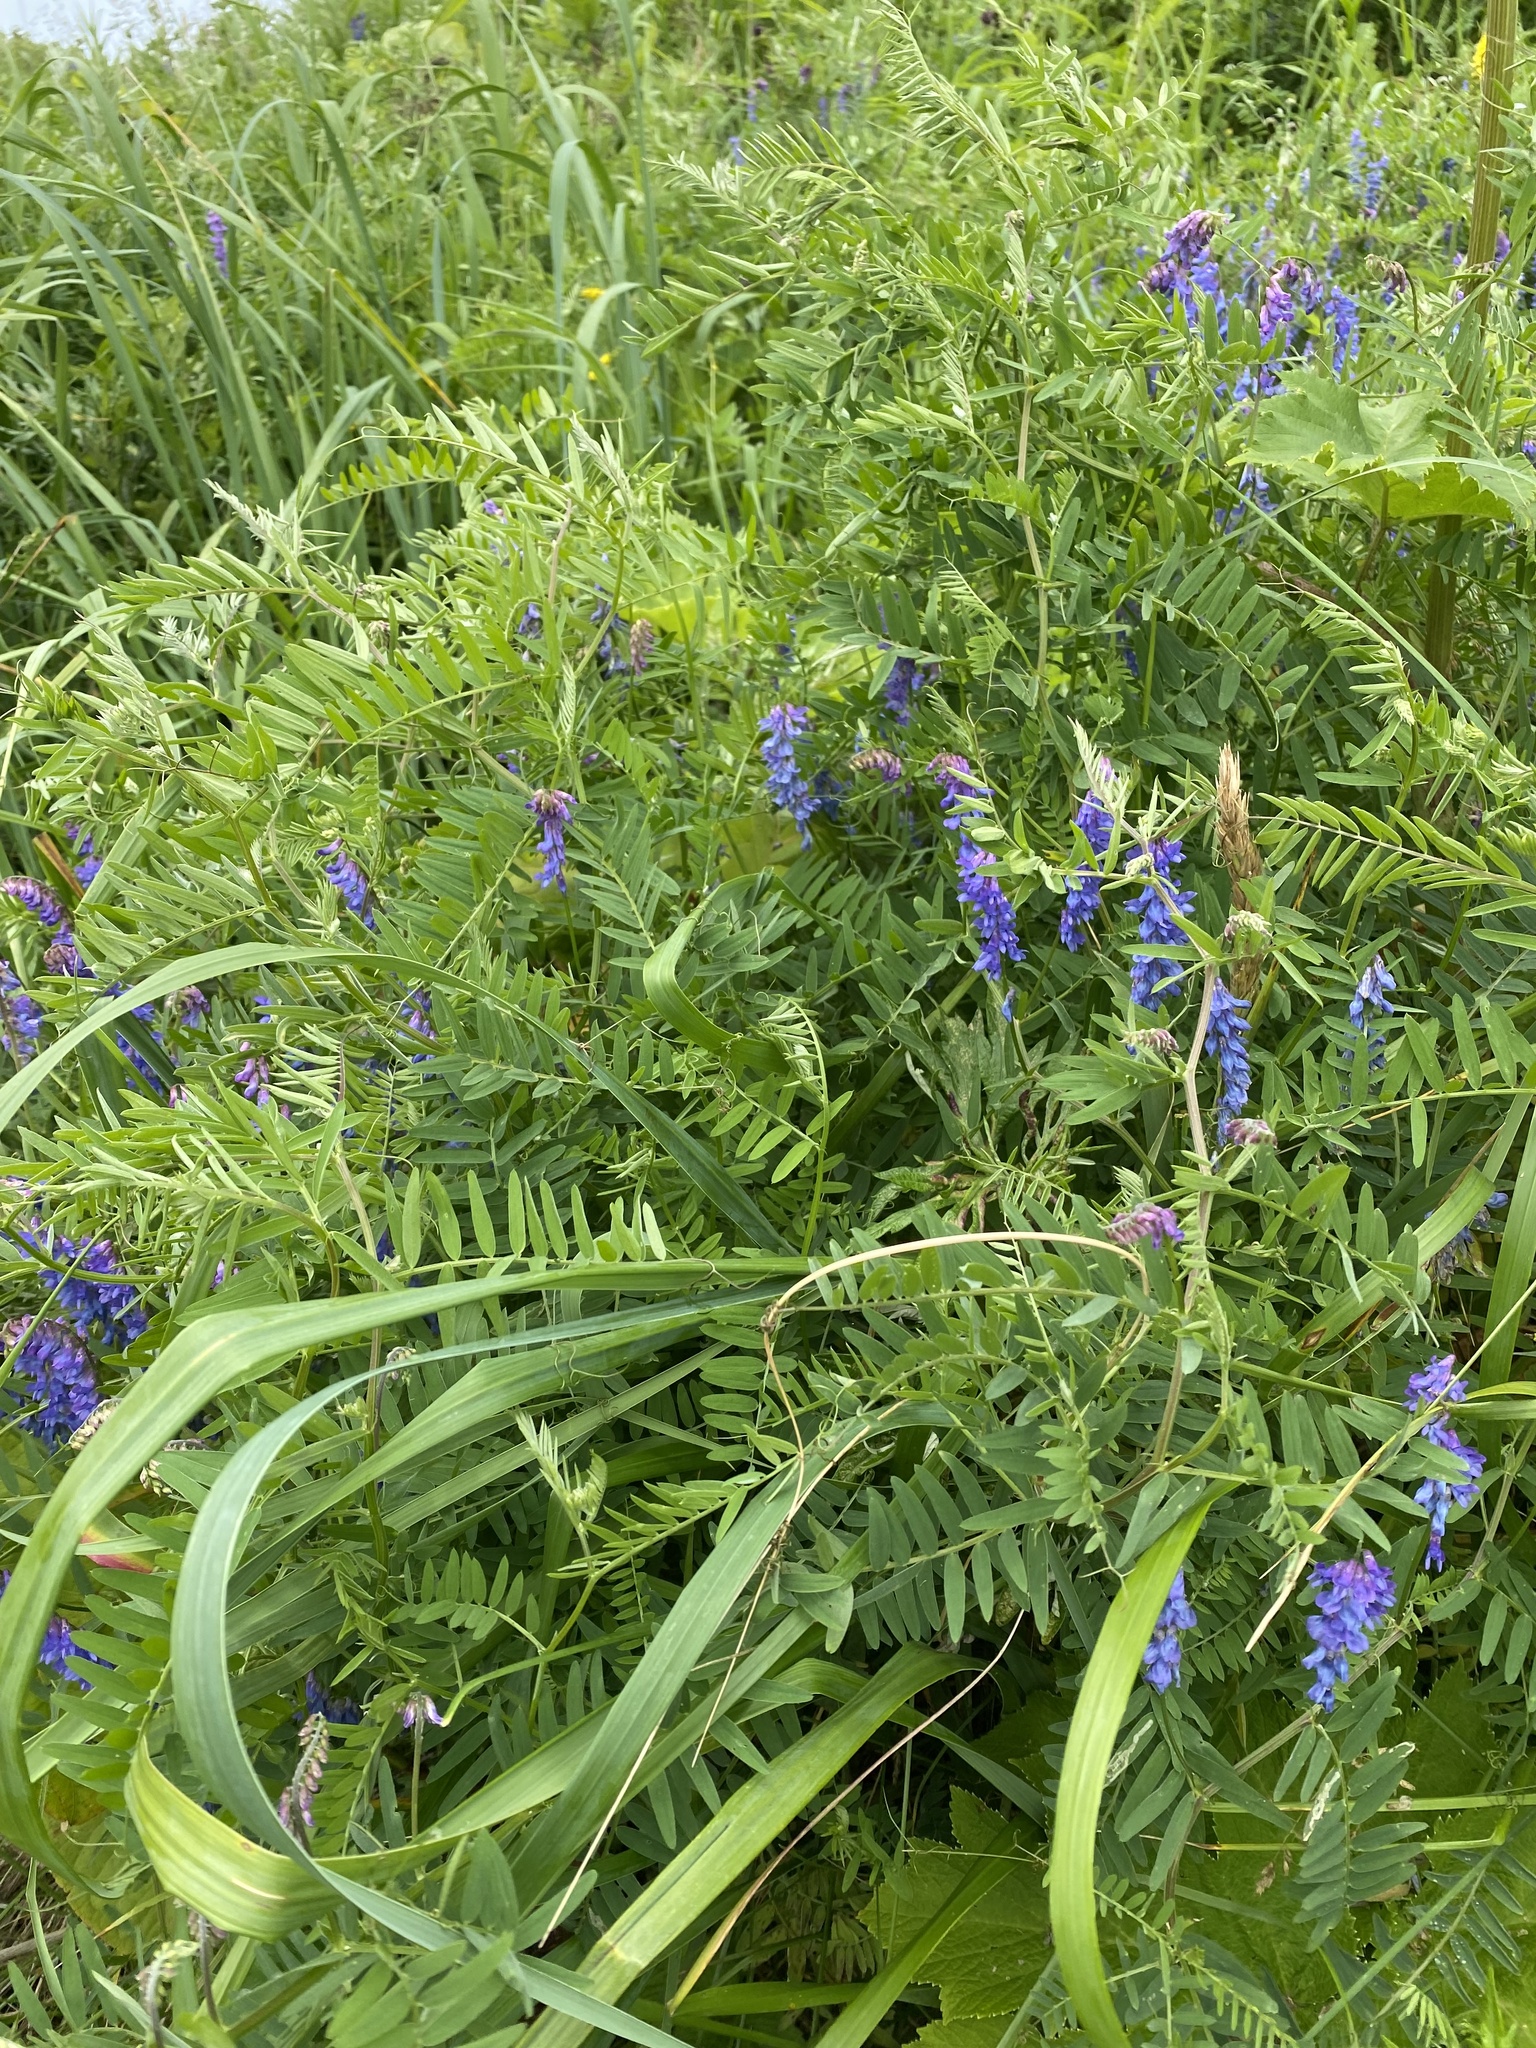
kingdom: Plantae
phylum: Tracheophyta
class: Magnoliopsida
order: Fabales
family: Fabaceae
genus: Vicia
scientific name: Vicia cracca
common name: Bird vetch
